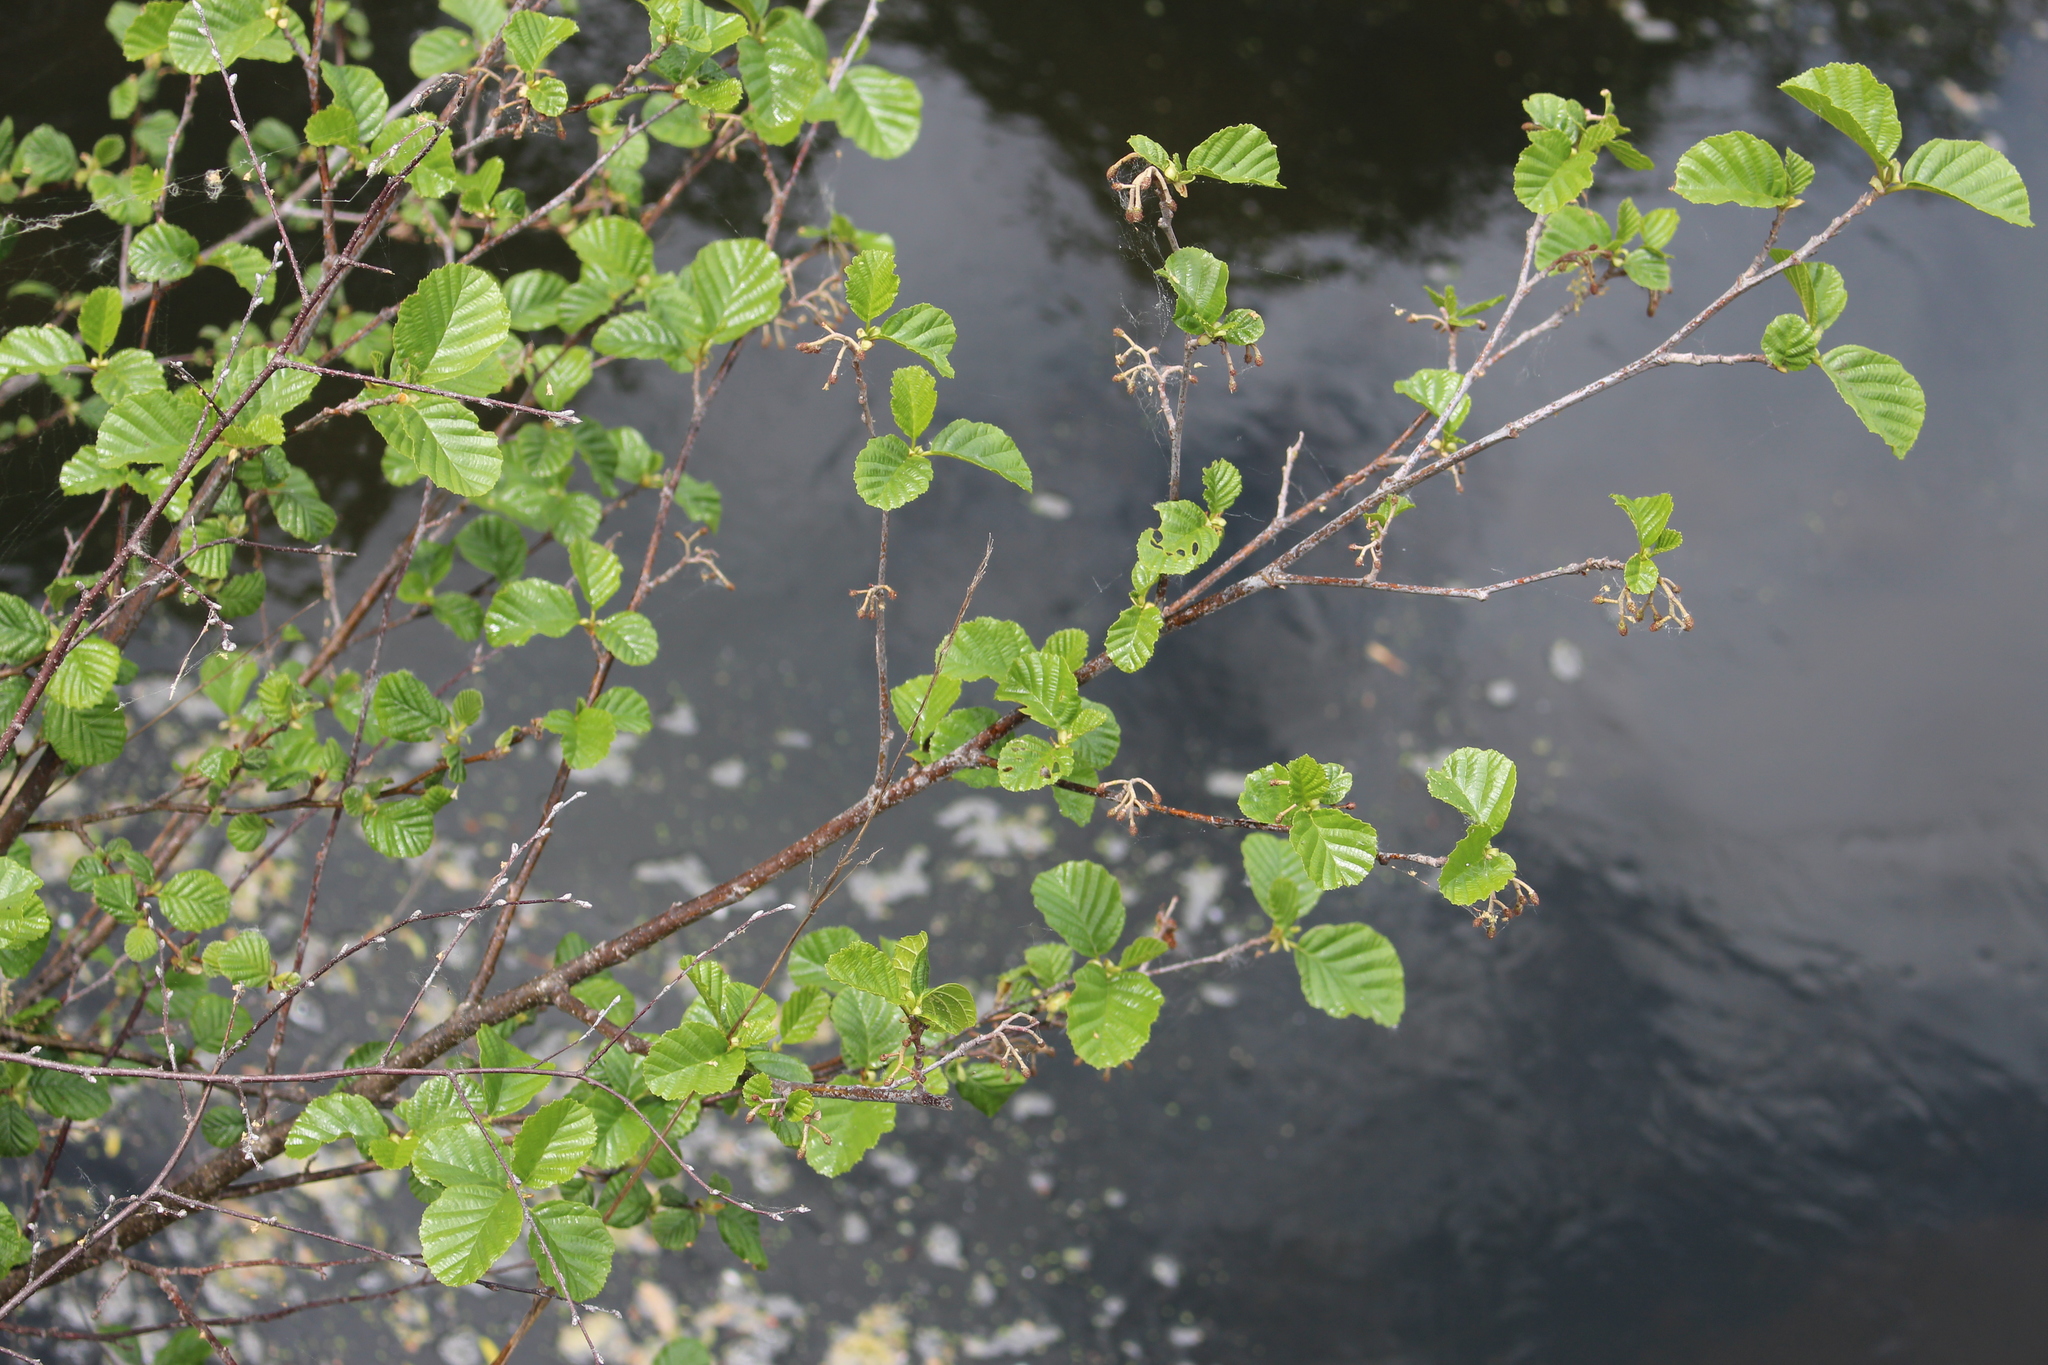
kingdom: Plantae
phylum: Tracheophyta
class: Magnoliopsida
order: Fagales
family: Betulaceae
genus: Alnus
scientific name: Alnus glutinosa
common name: Black alder
